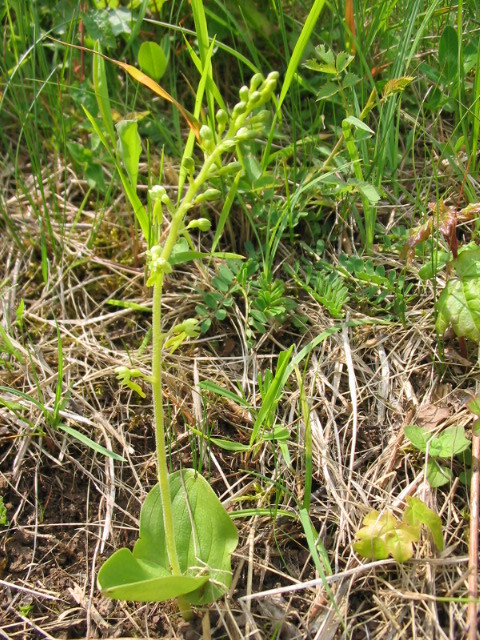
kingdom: Plantae
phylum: Tracheophyta
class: Liliopsida
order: Asparagales
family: Orchidaceae
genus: Neottia
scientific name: Neottia ovata
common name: Common twayblade
